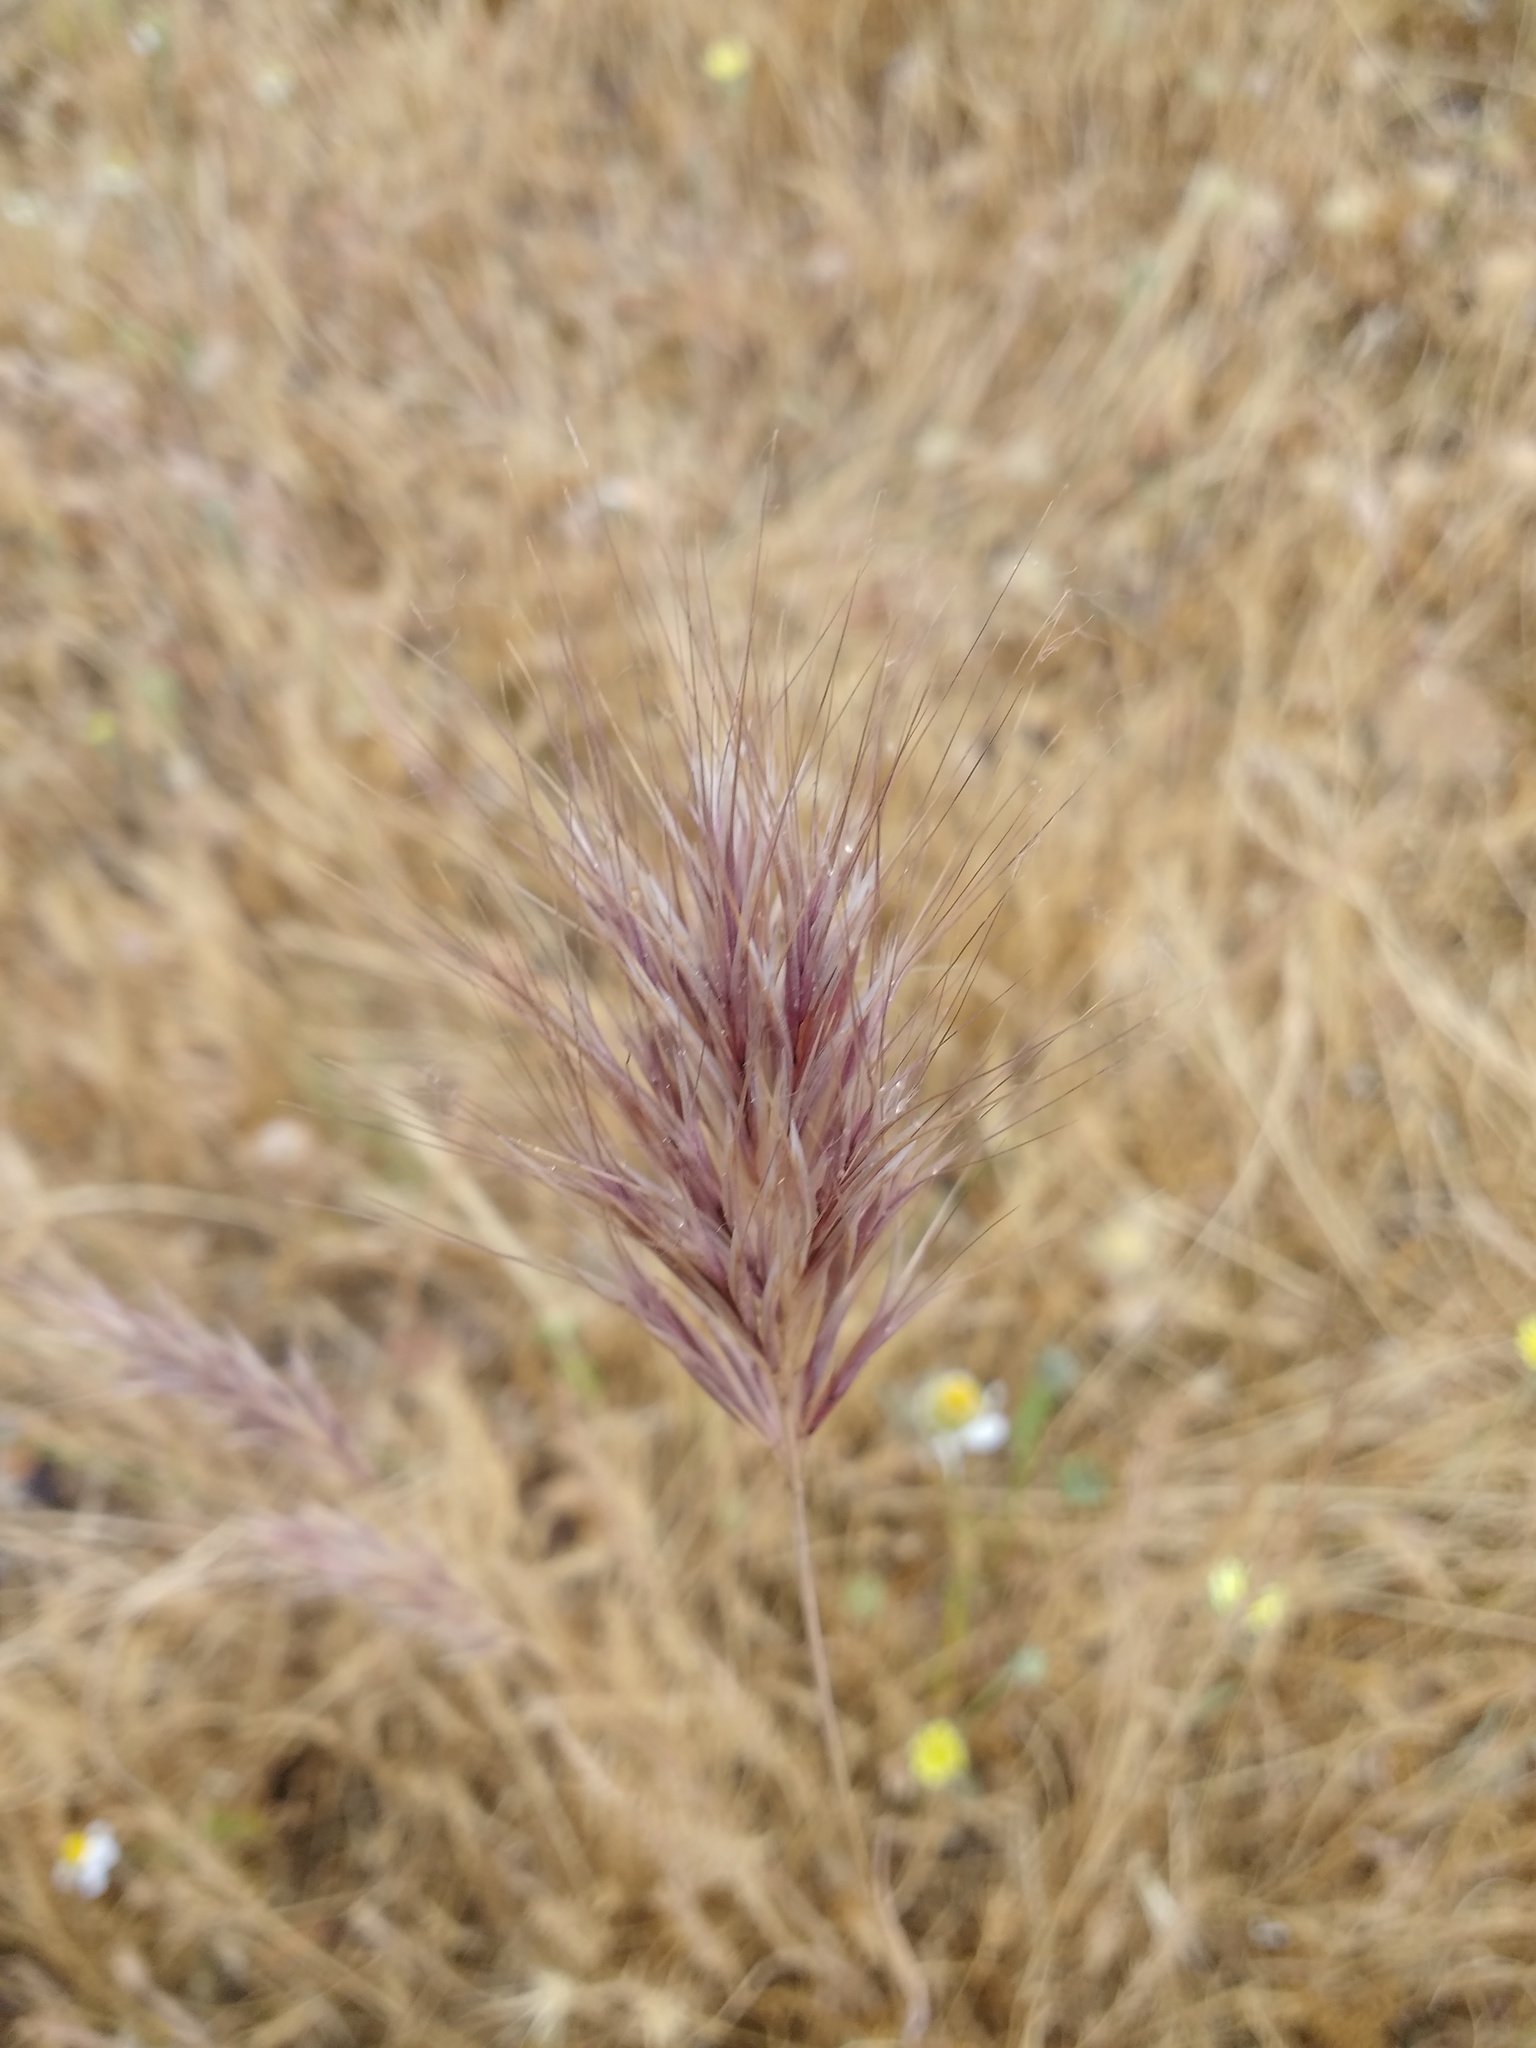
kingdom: Plantae
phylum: Tracheophyta
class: Liliopsida
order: Poales
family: Poaceae
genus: Bromus
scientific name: Bromus rubens
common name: Red brome
